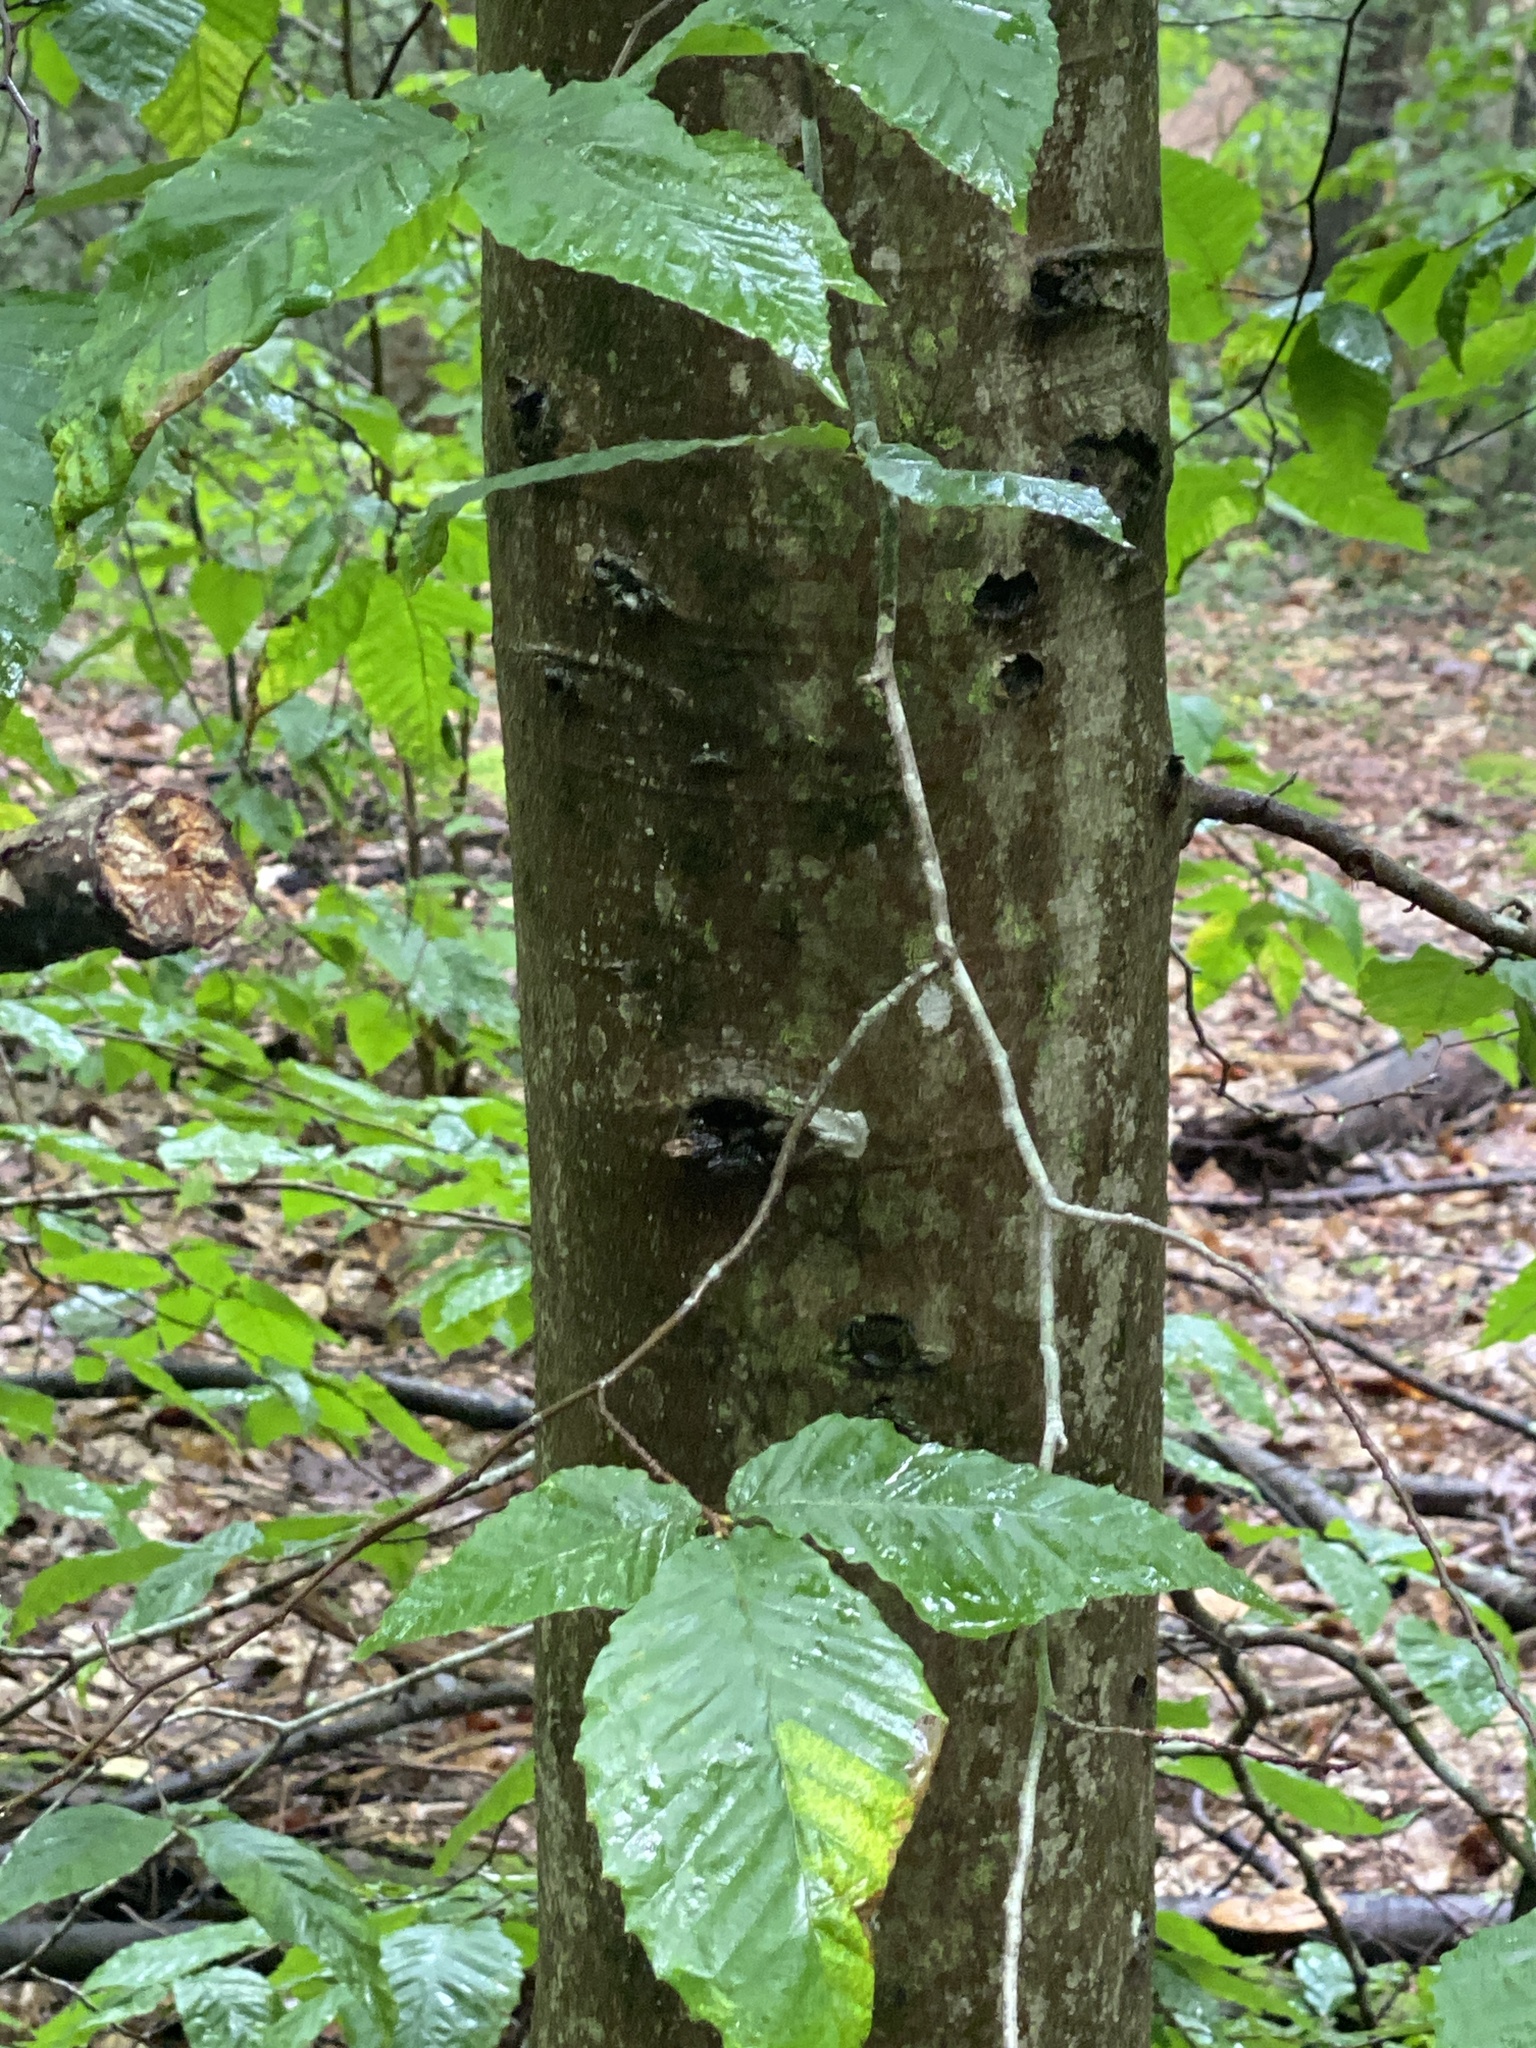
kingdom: Animalia
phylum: Nematoda
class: Chromadorea
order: Rhabditida
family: Anguinidae
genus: Litylenchus
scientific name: Litylenchus crenatae
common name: Beech leaf disease
